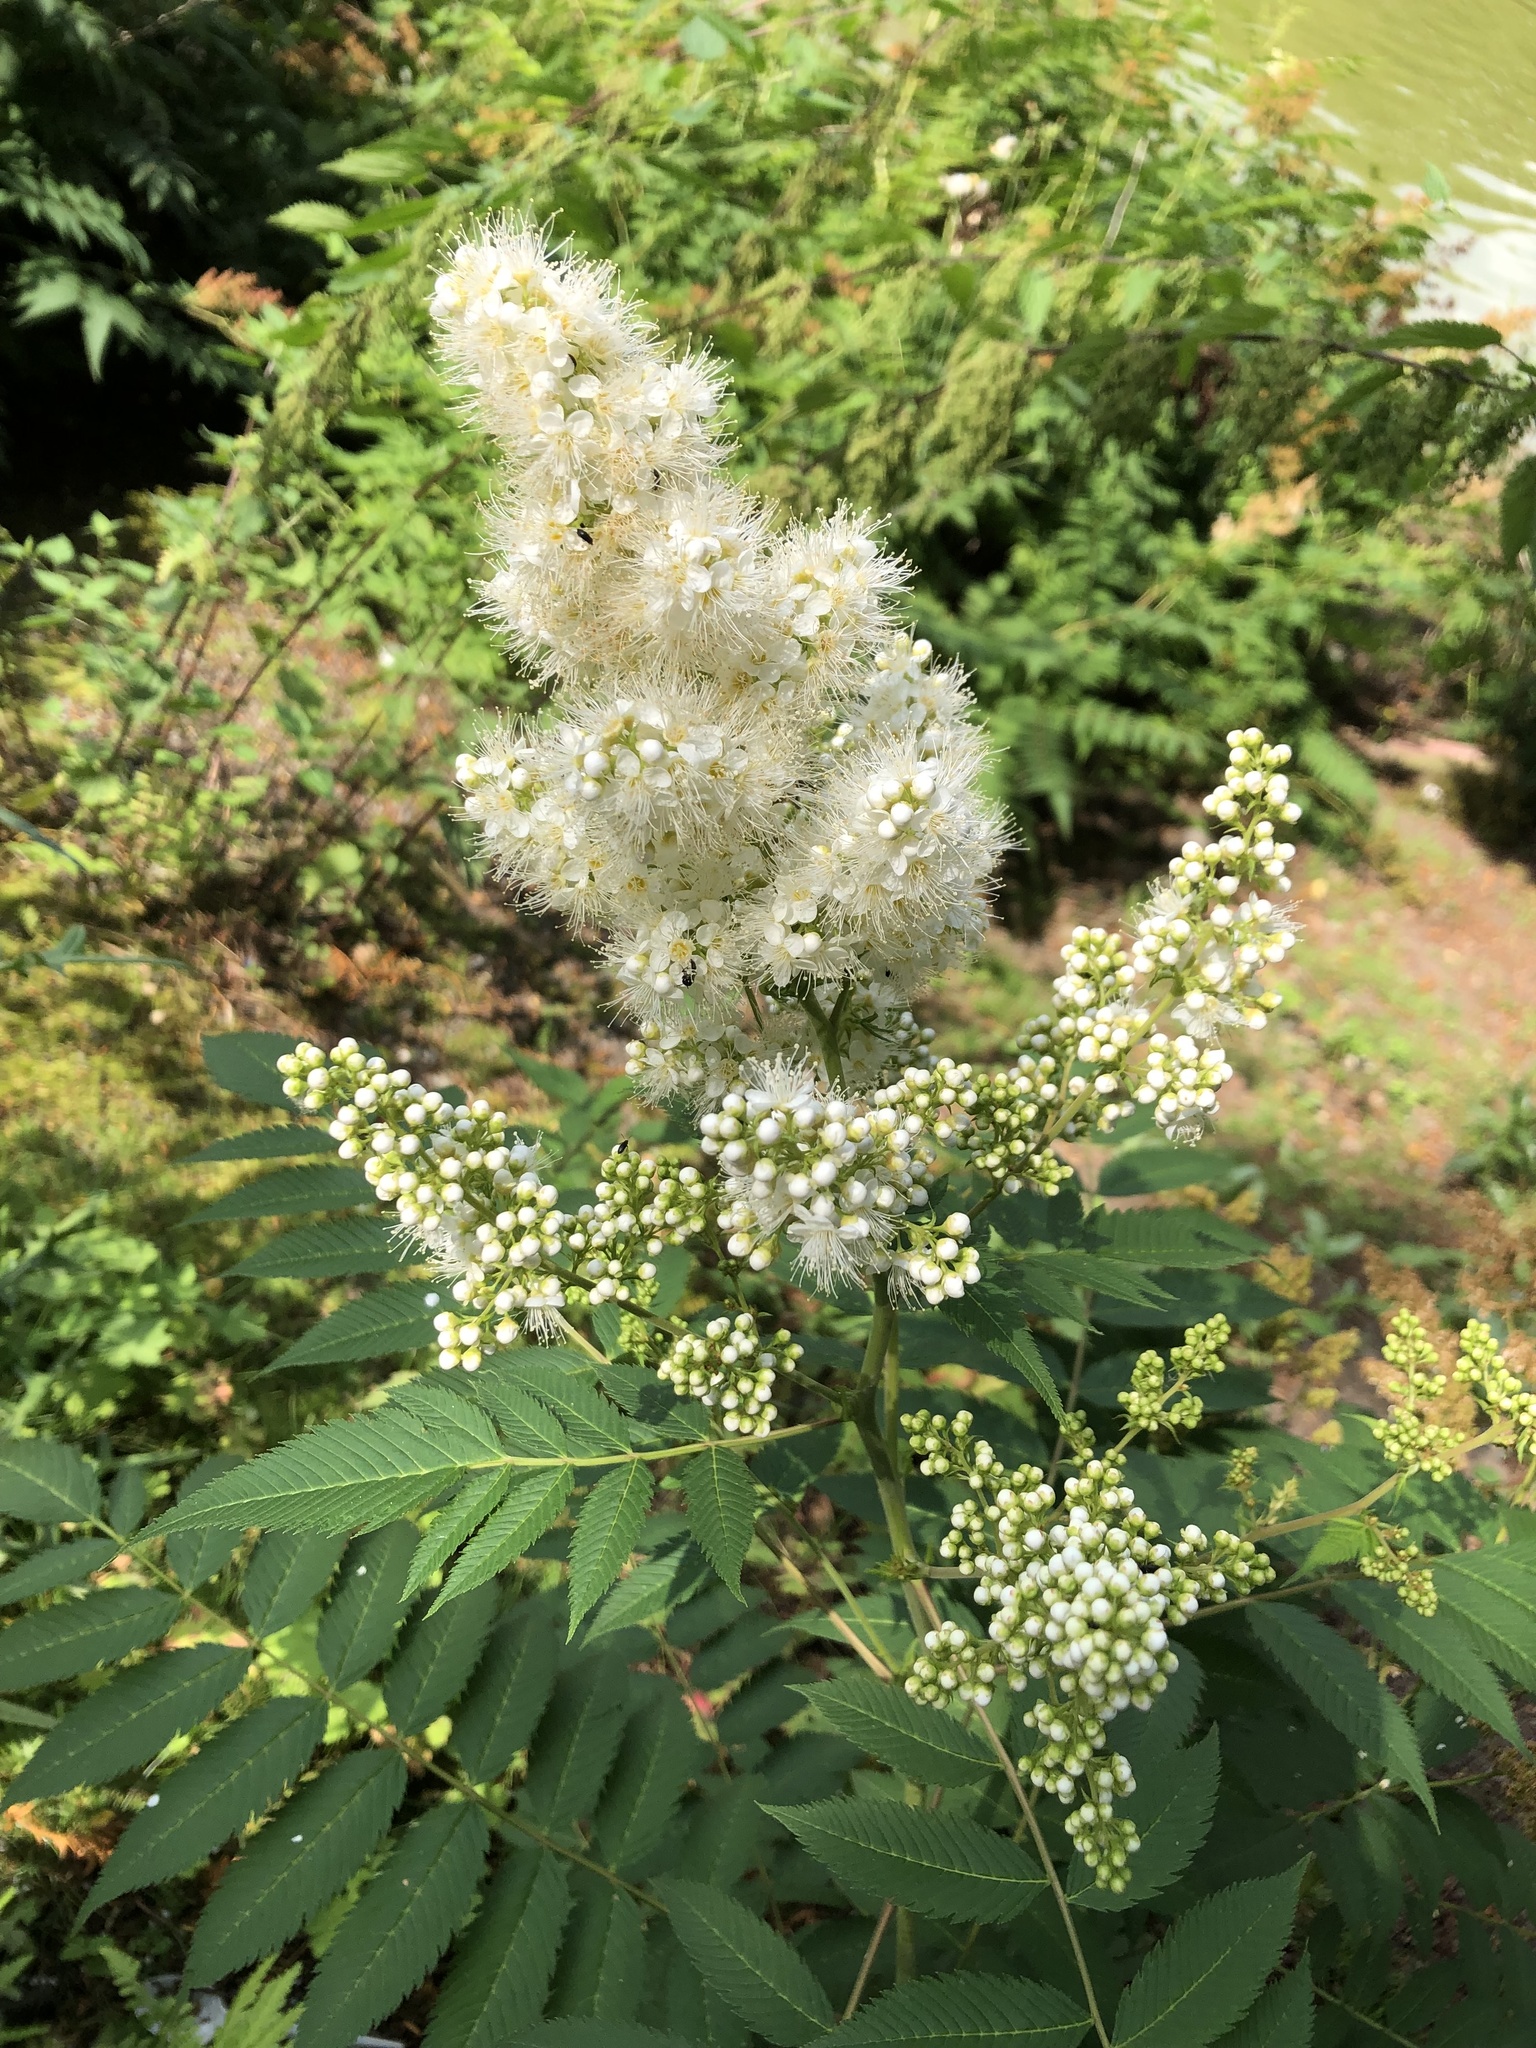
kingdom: Plantae
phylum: Tracheophyta
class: Magnoliopsida
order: Rosales
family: Rosaceae
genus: Sorbaria
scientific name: Sorbaria sorbifolia
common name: False spiraea
